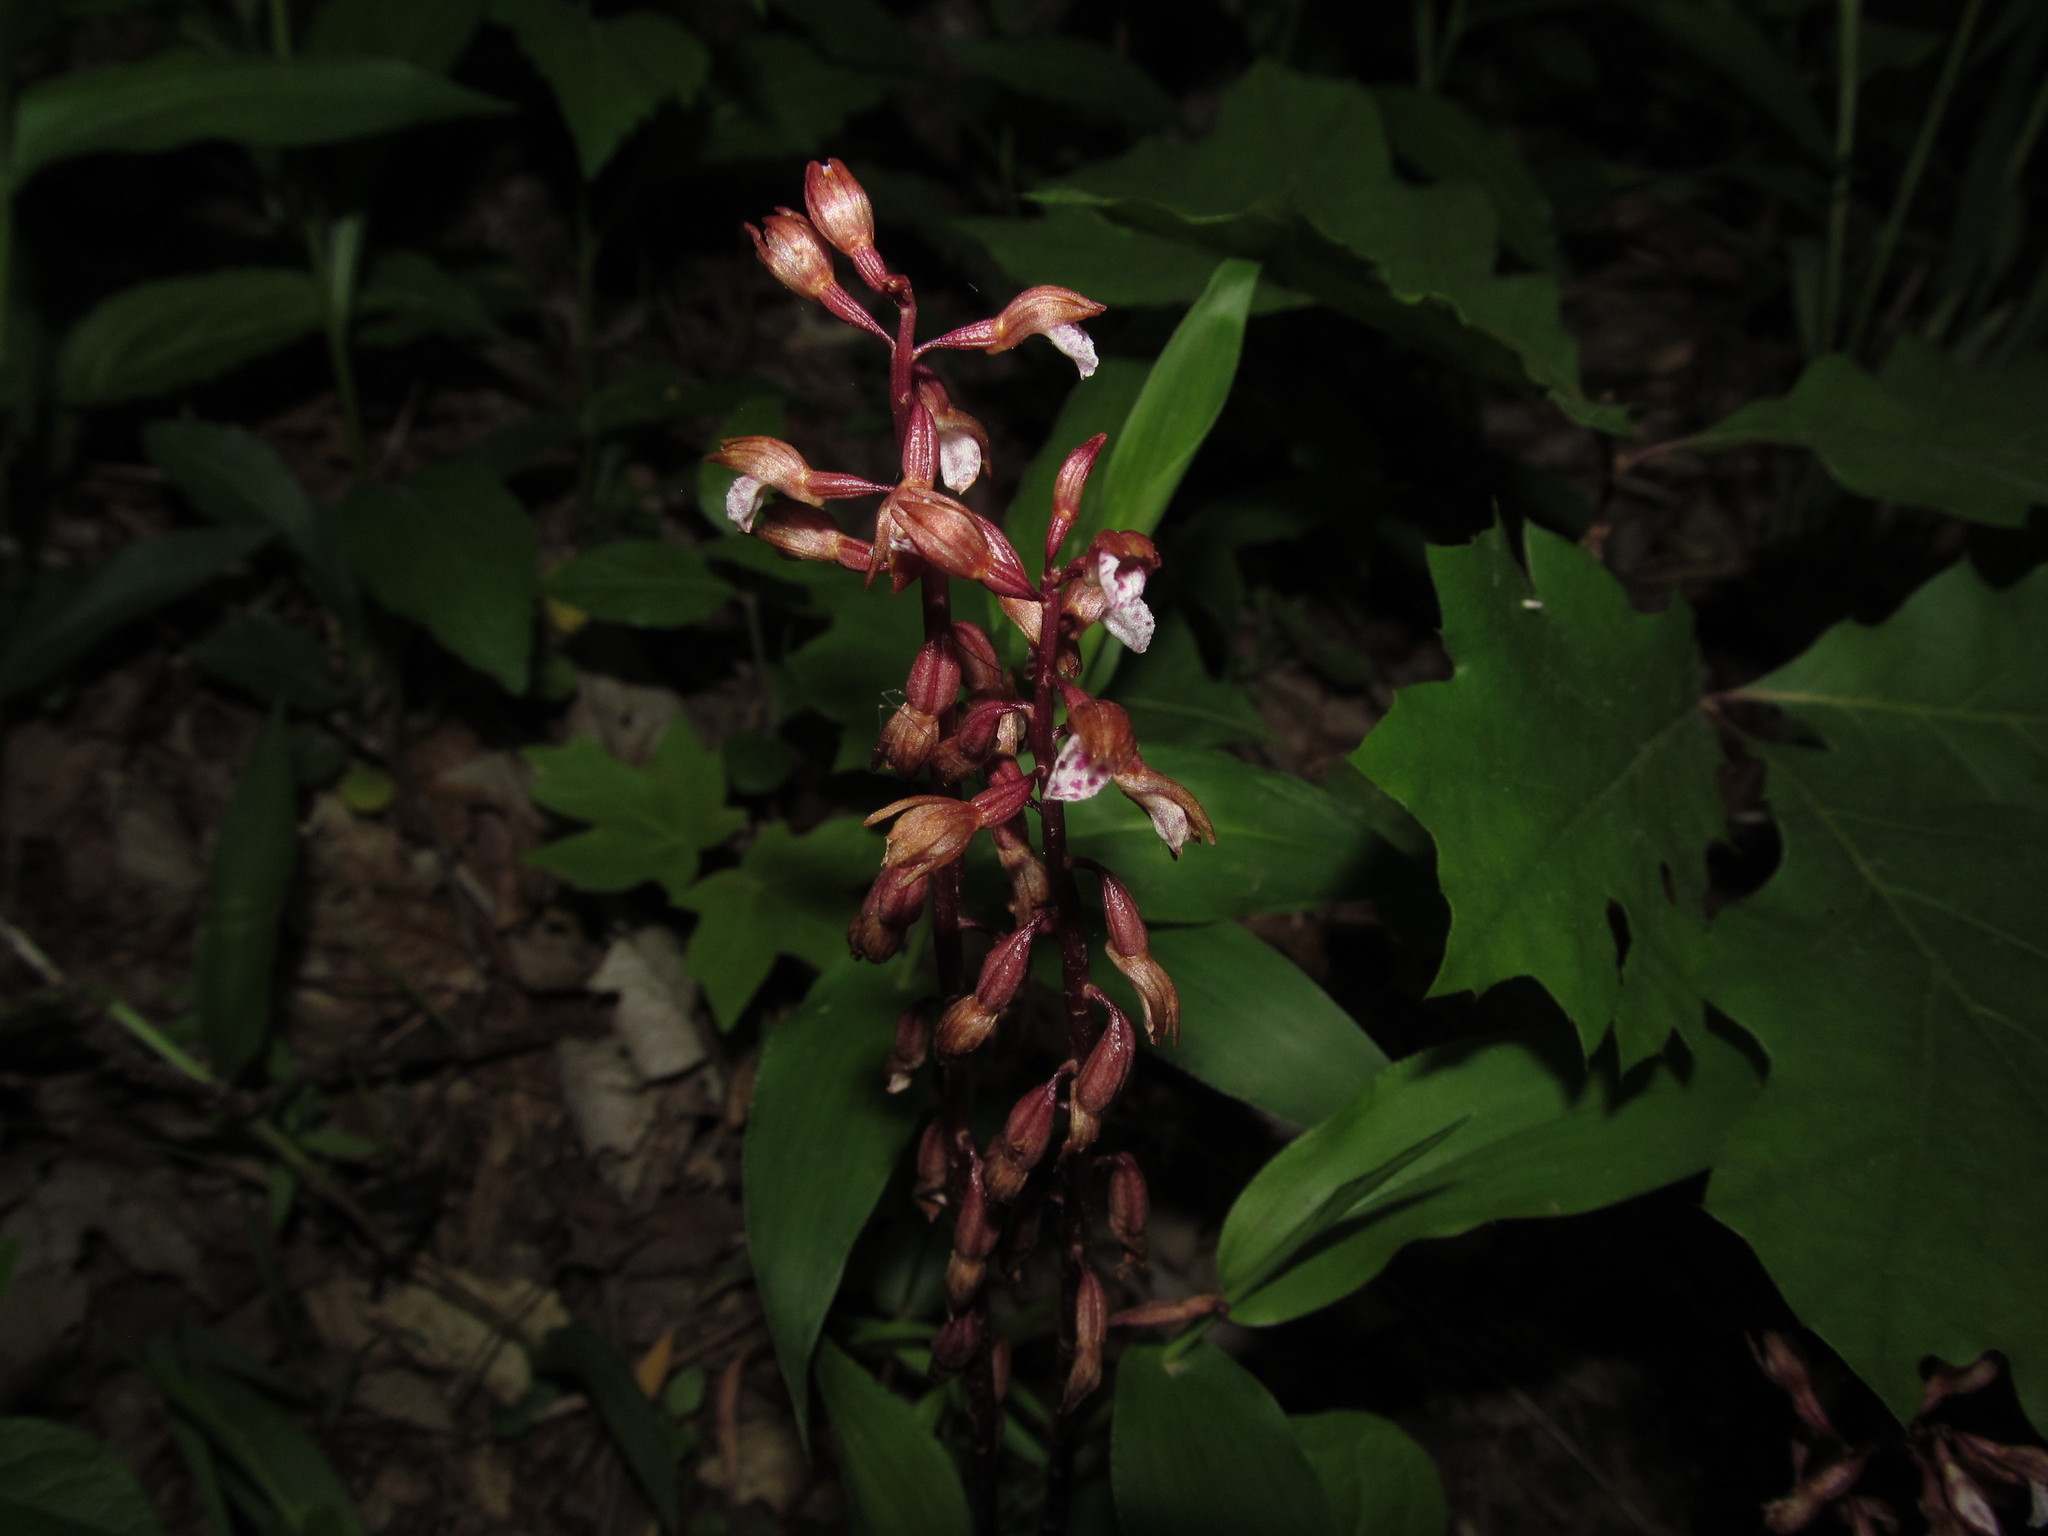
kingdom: Plantae
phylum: Tracheophyta
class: Liliopsida
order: Asparagales
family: Orchidaceae
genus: Corallorhiza
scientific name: Corallorhiza wisteriana
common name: Spring coralroot
